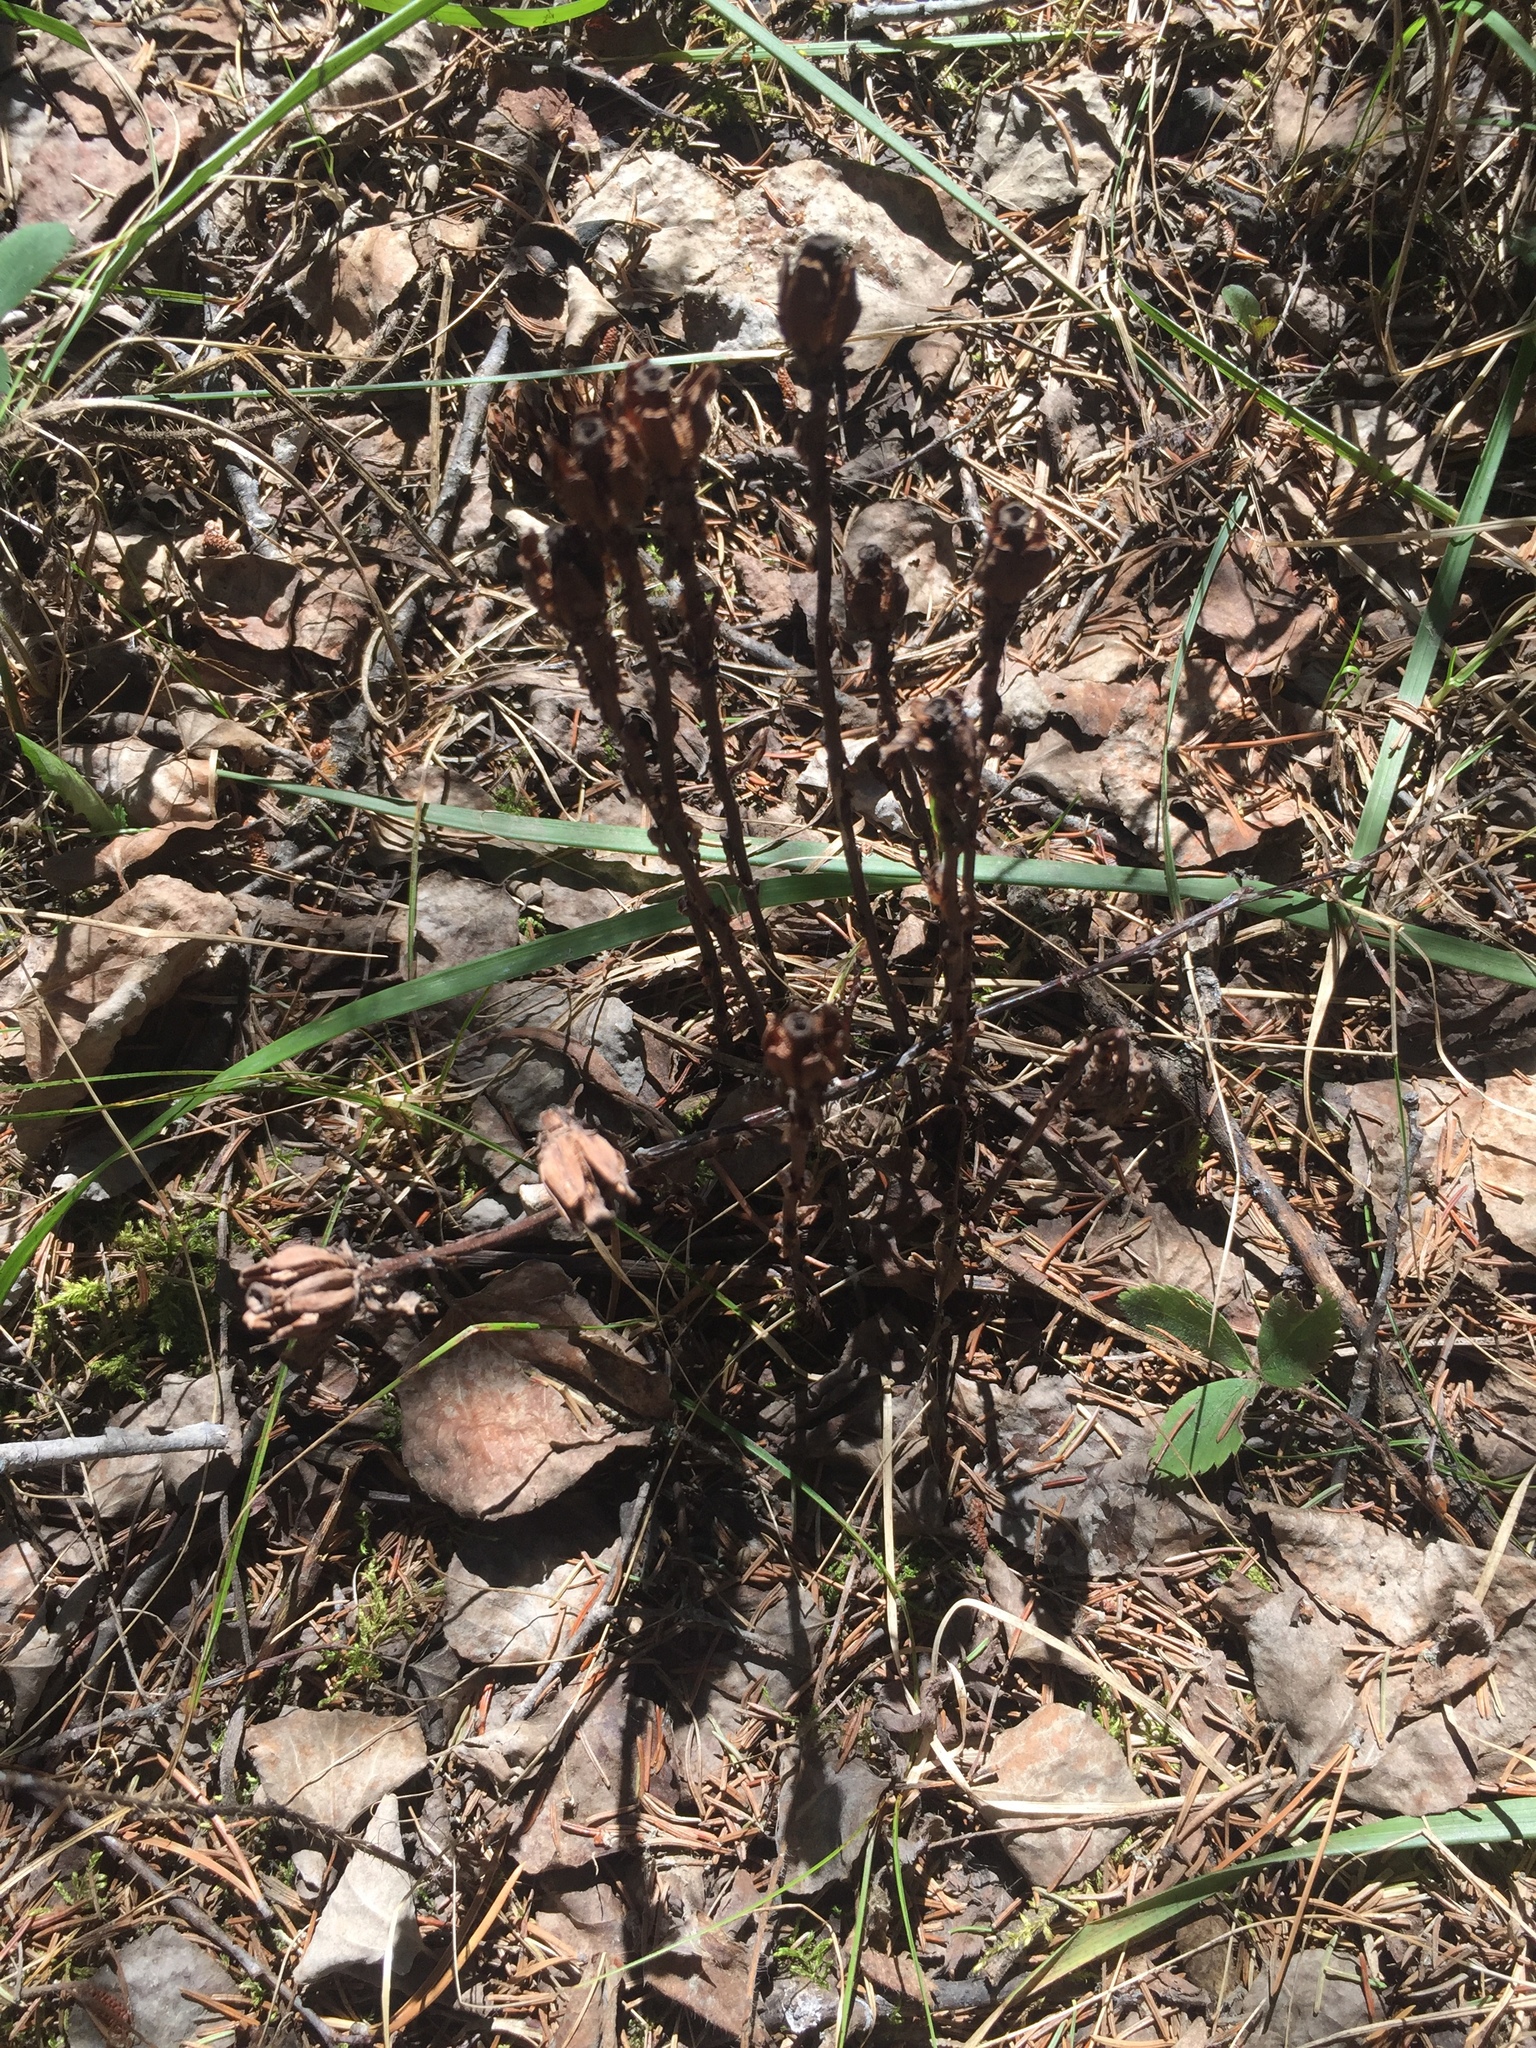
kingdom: Plantae
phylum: Tracheophyta
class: Magnoliopsida
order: Ericales
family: Ericaceae
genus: Monotropa
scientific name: Monotropa uniflora
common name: Convulsion root
